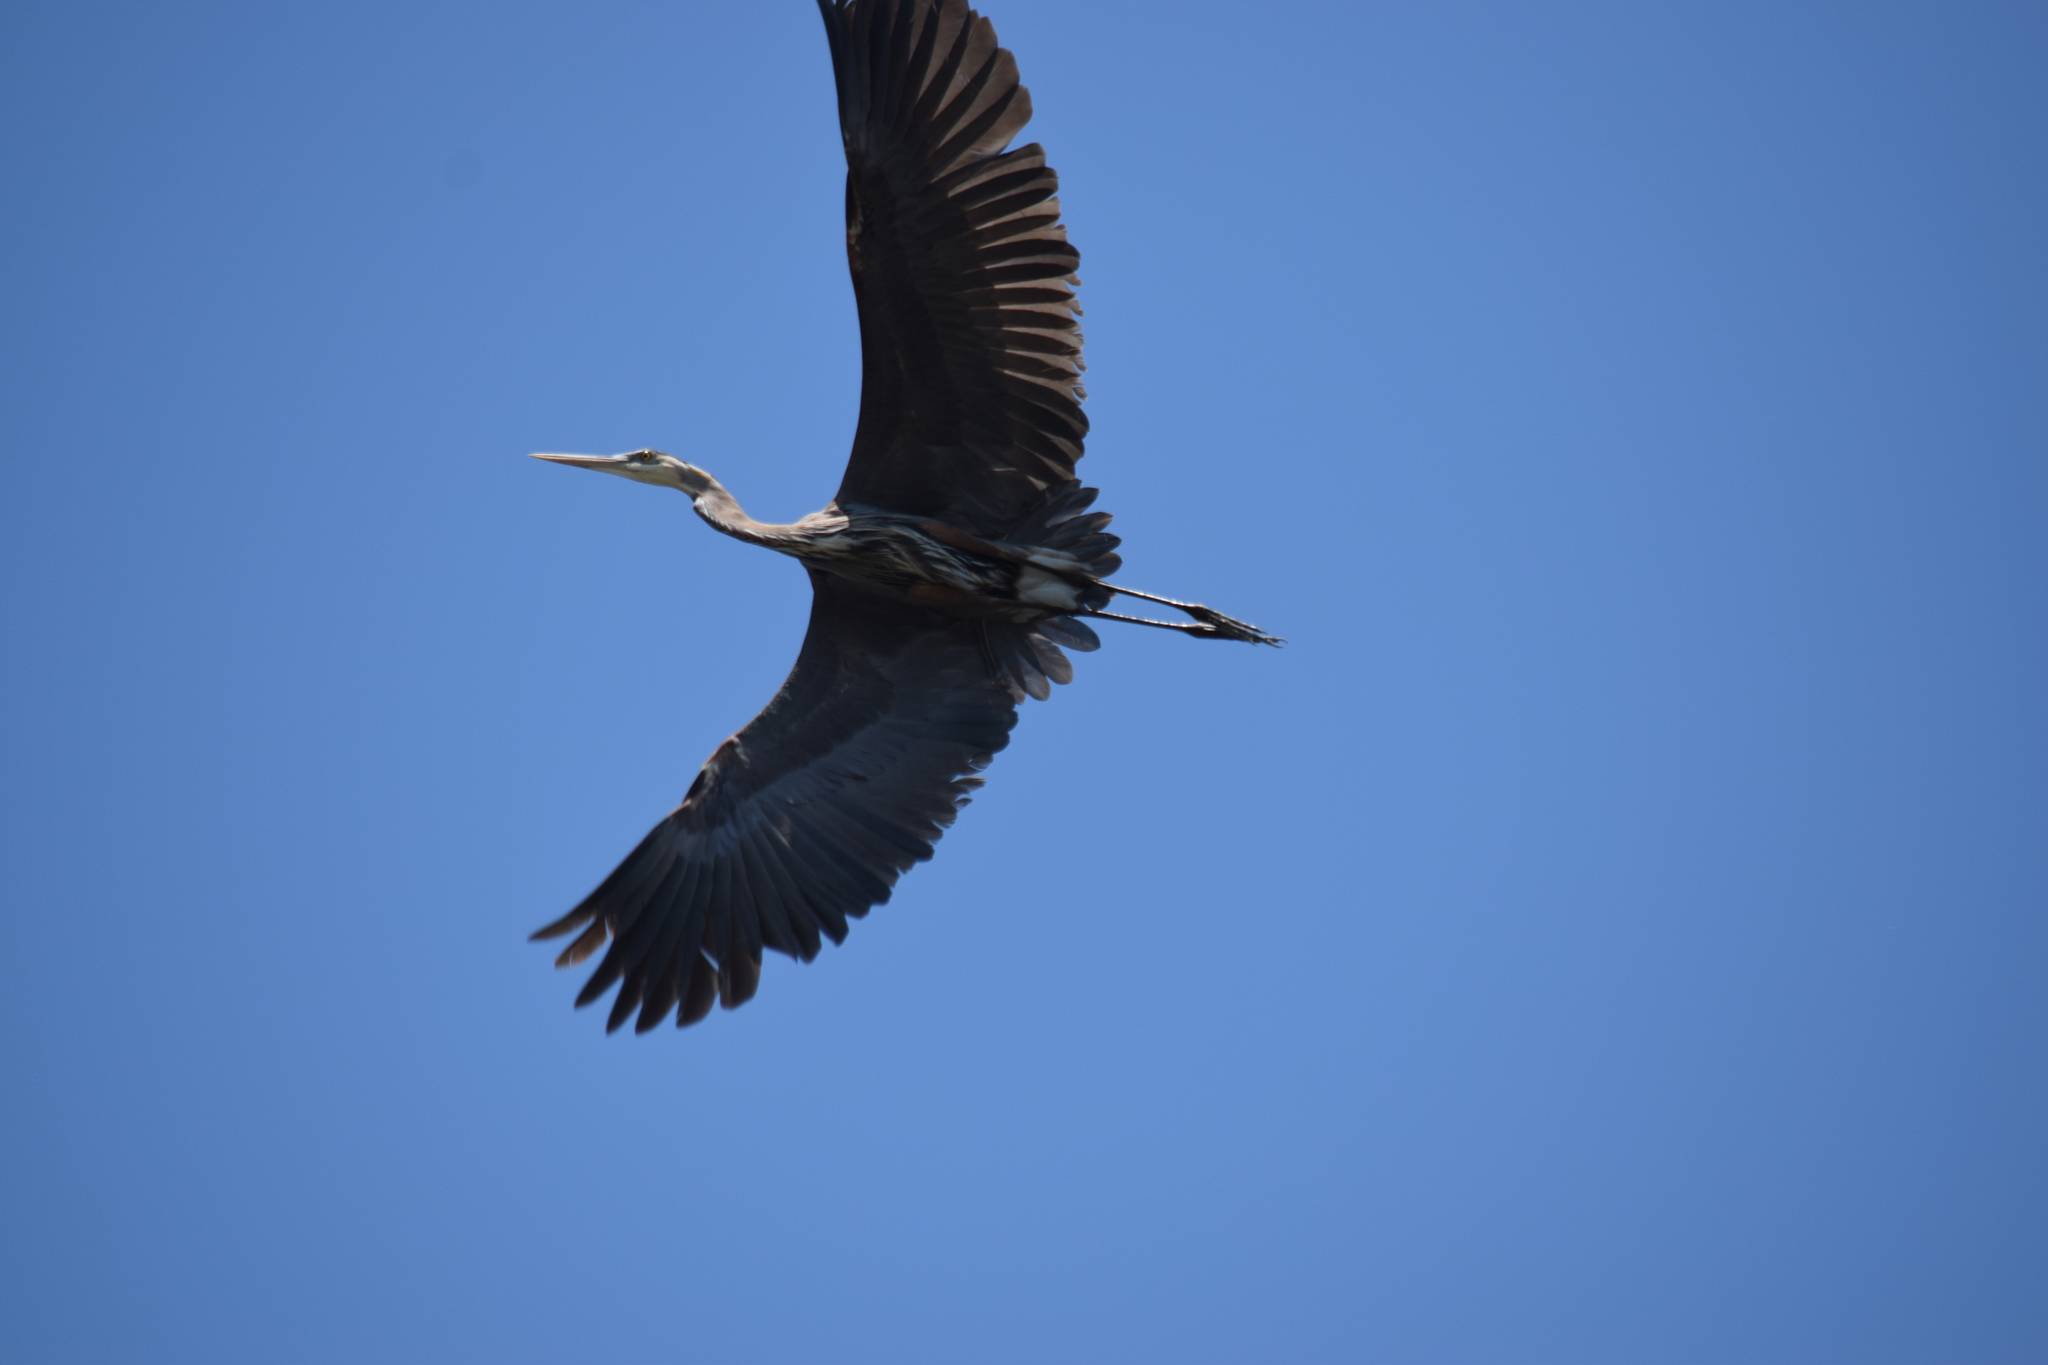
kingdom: Animalia
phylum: Chordata
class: Aves
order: Pelecaniformes
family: Ardeidae
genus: Ardea
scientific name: Ardea herodias
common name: Great blue heron
